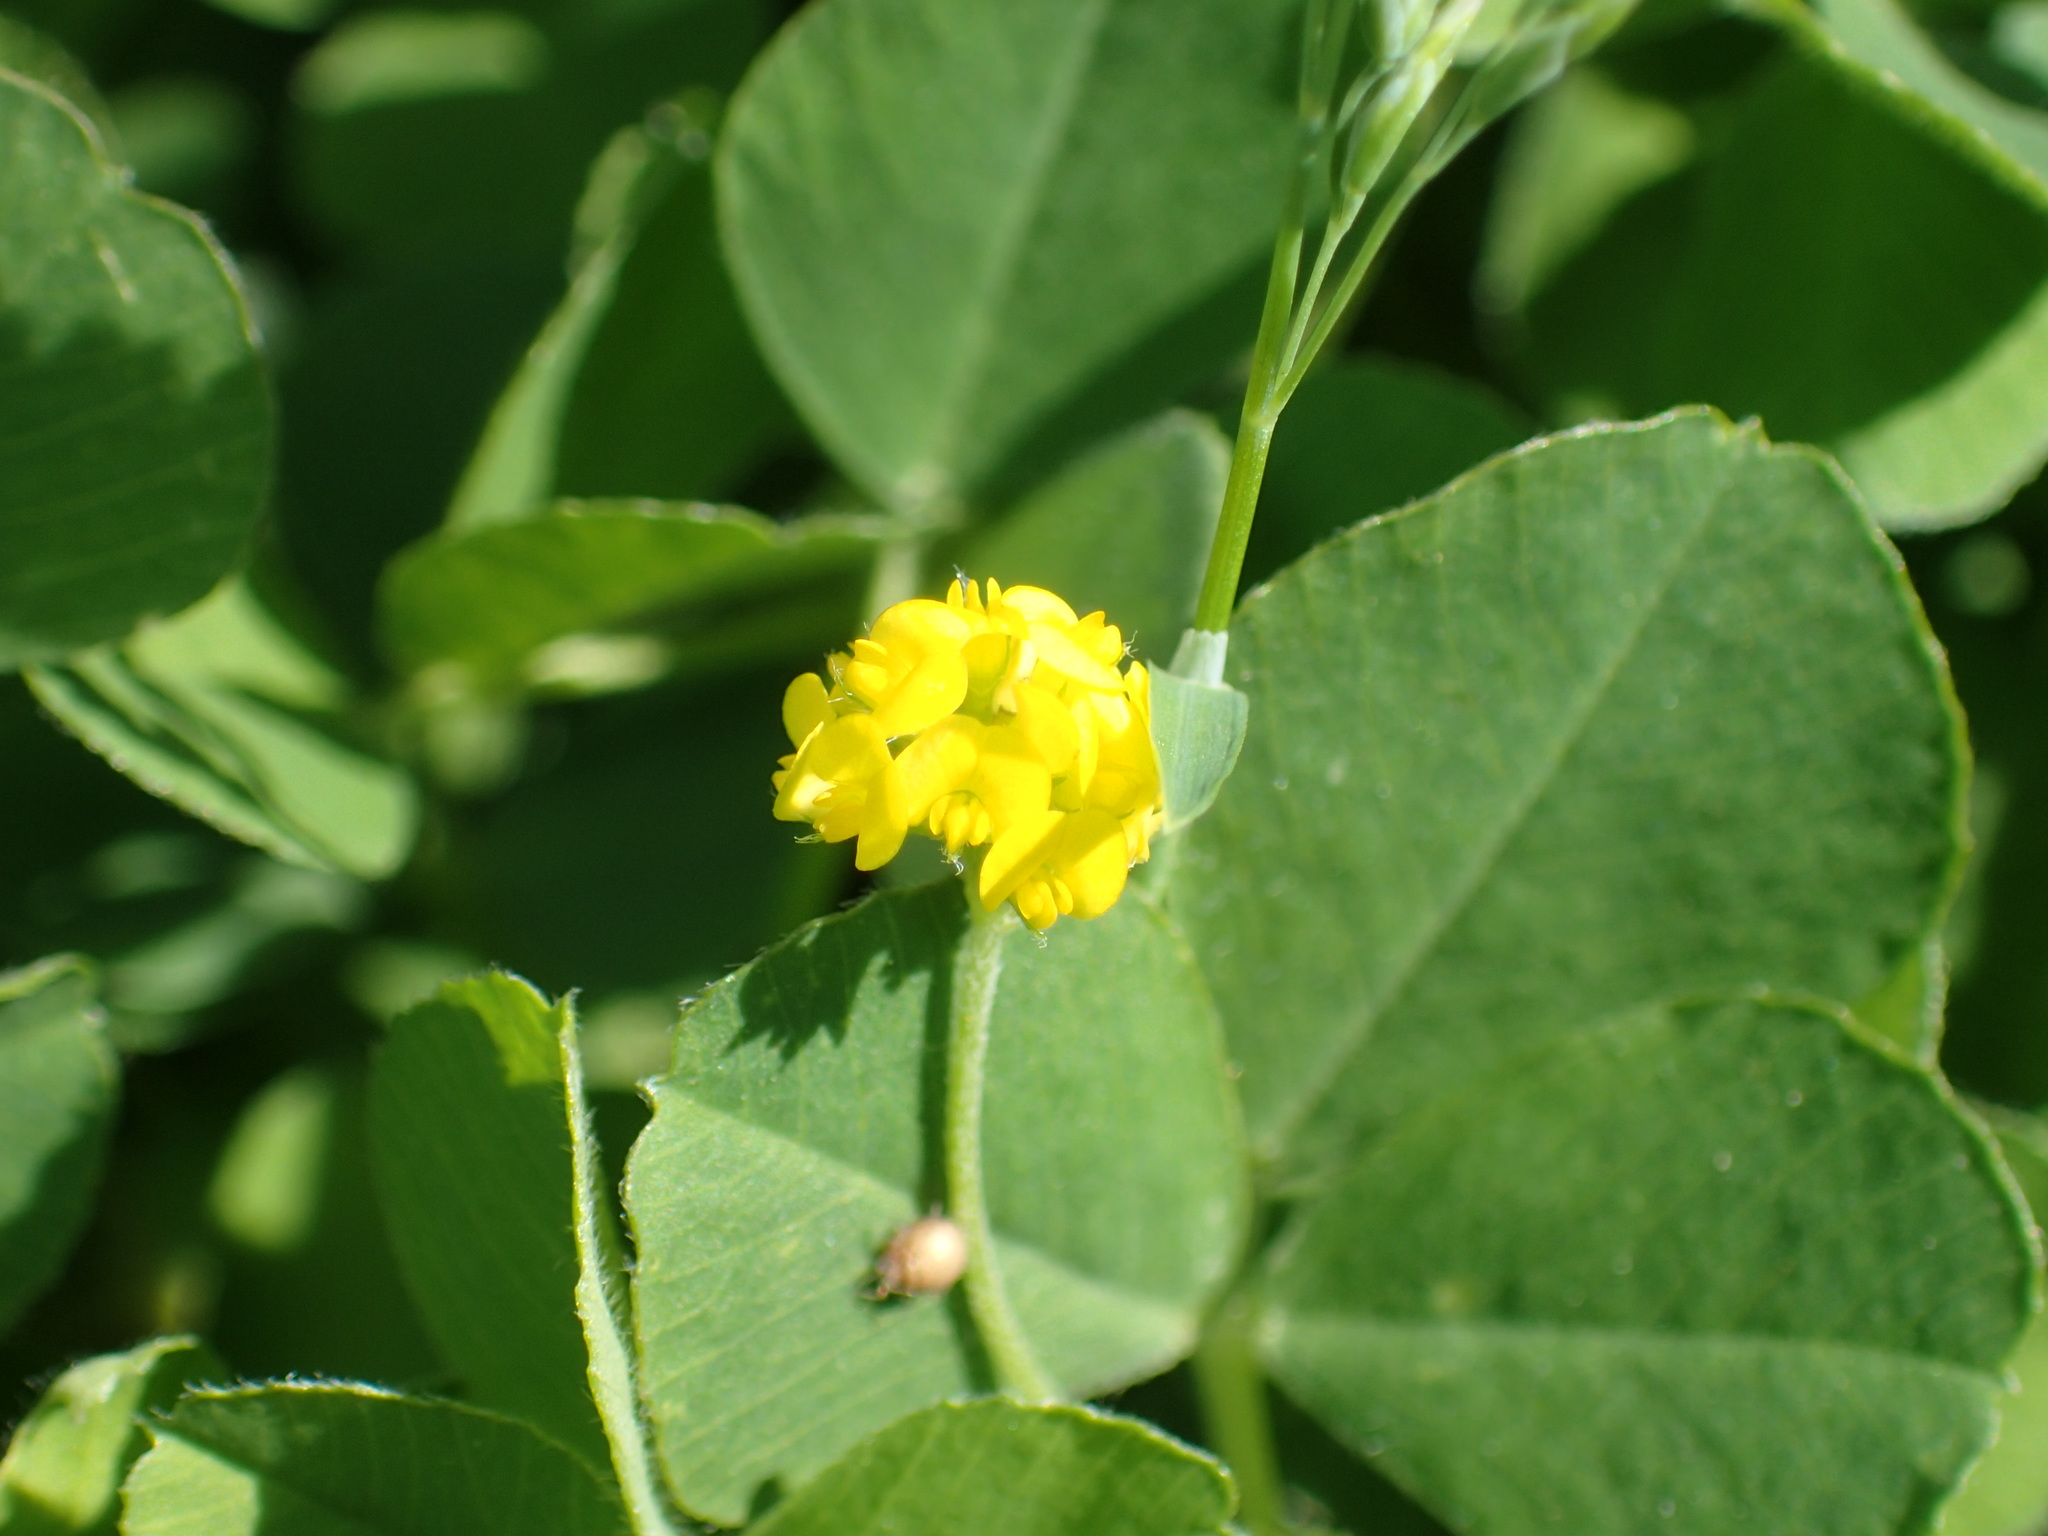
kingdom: Plantae
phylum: Tracheophyta
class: Magnoliopsida
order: Fabales
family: Fabaceae
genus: Medicago
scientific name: Medicago lupulina
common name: Black medick
